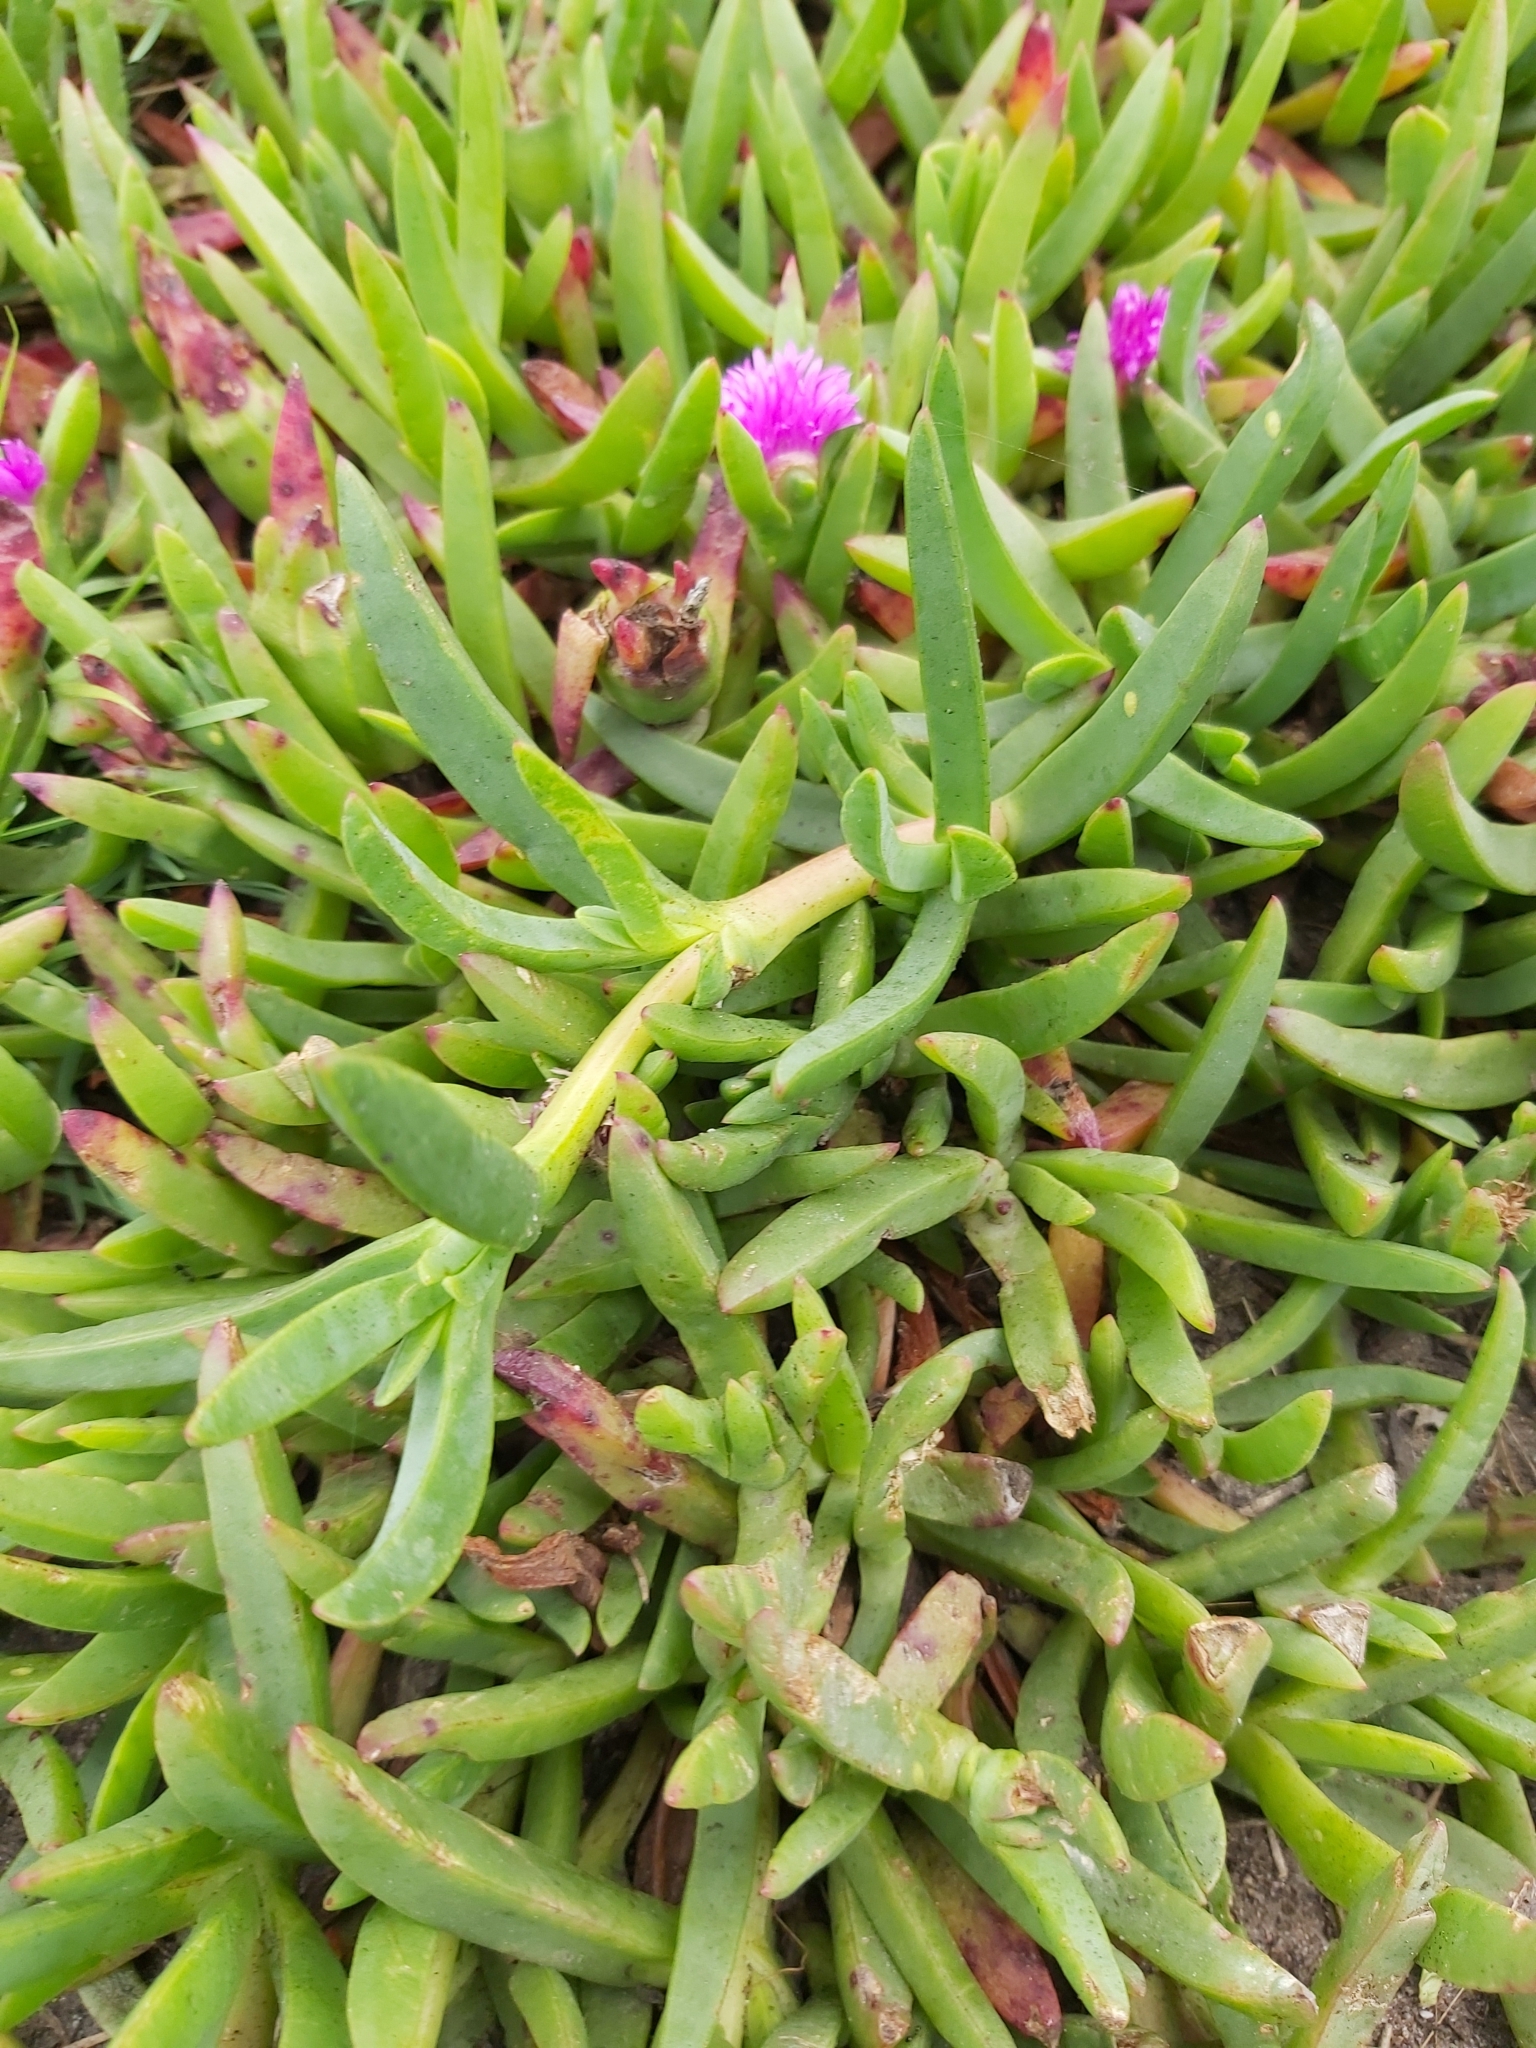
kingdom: Plantae
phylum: Tracheophyta
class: Magnoliopsida
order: Caryophyllales
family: Aizoaceae
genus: Carpobrotus
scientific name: Carpobrotus glaucescens
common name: Angular sea-fig
